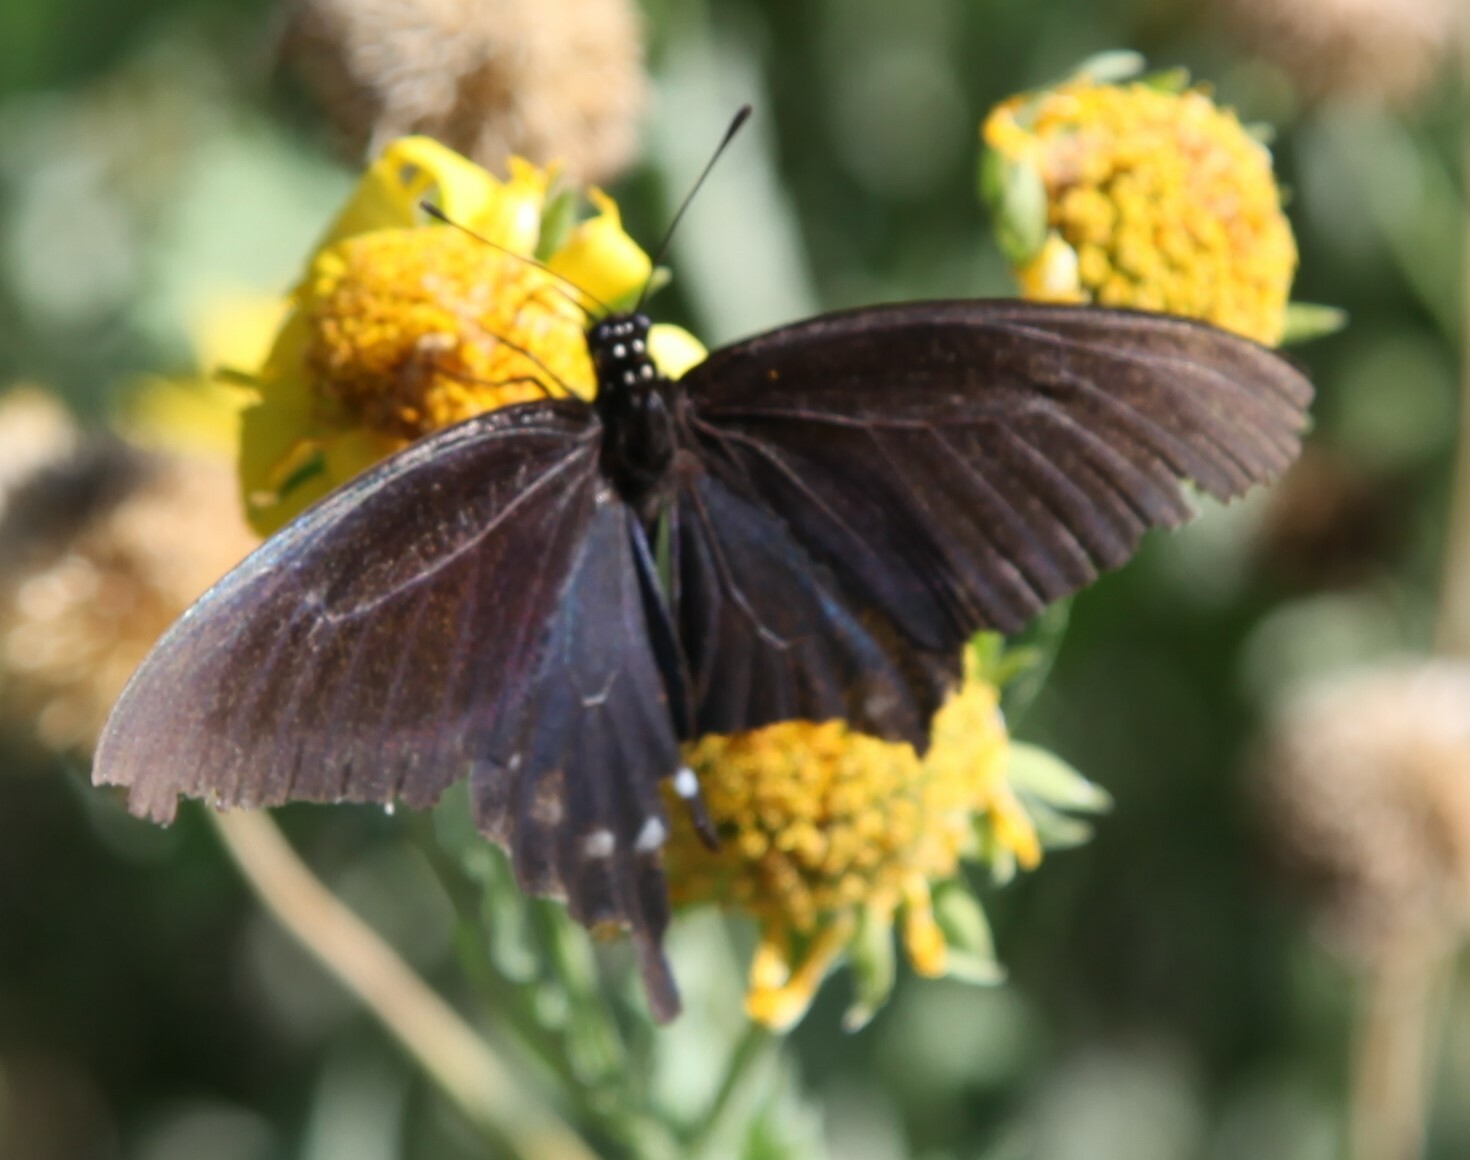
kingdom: Animalia
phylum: Arthropoda
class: Insecta
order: Lepidoptera
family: Papilionidae
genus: Battus
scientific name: Battus philenor
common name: Pipevine swallowtail
